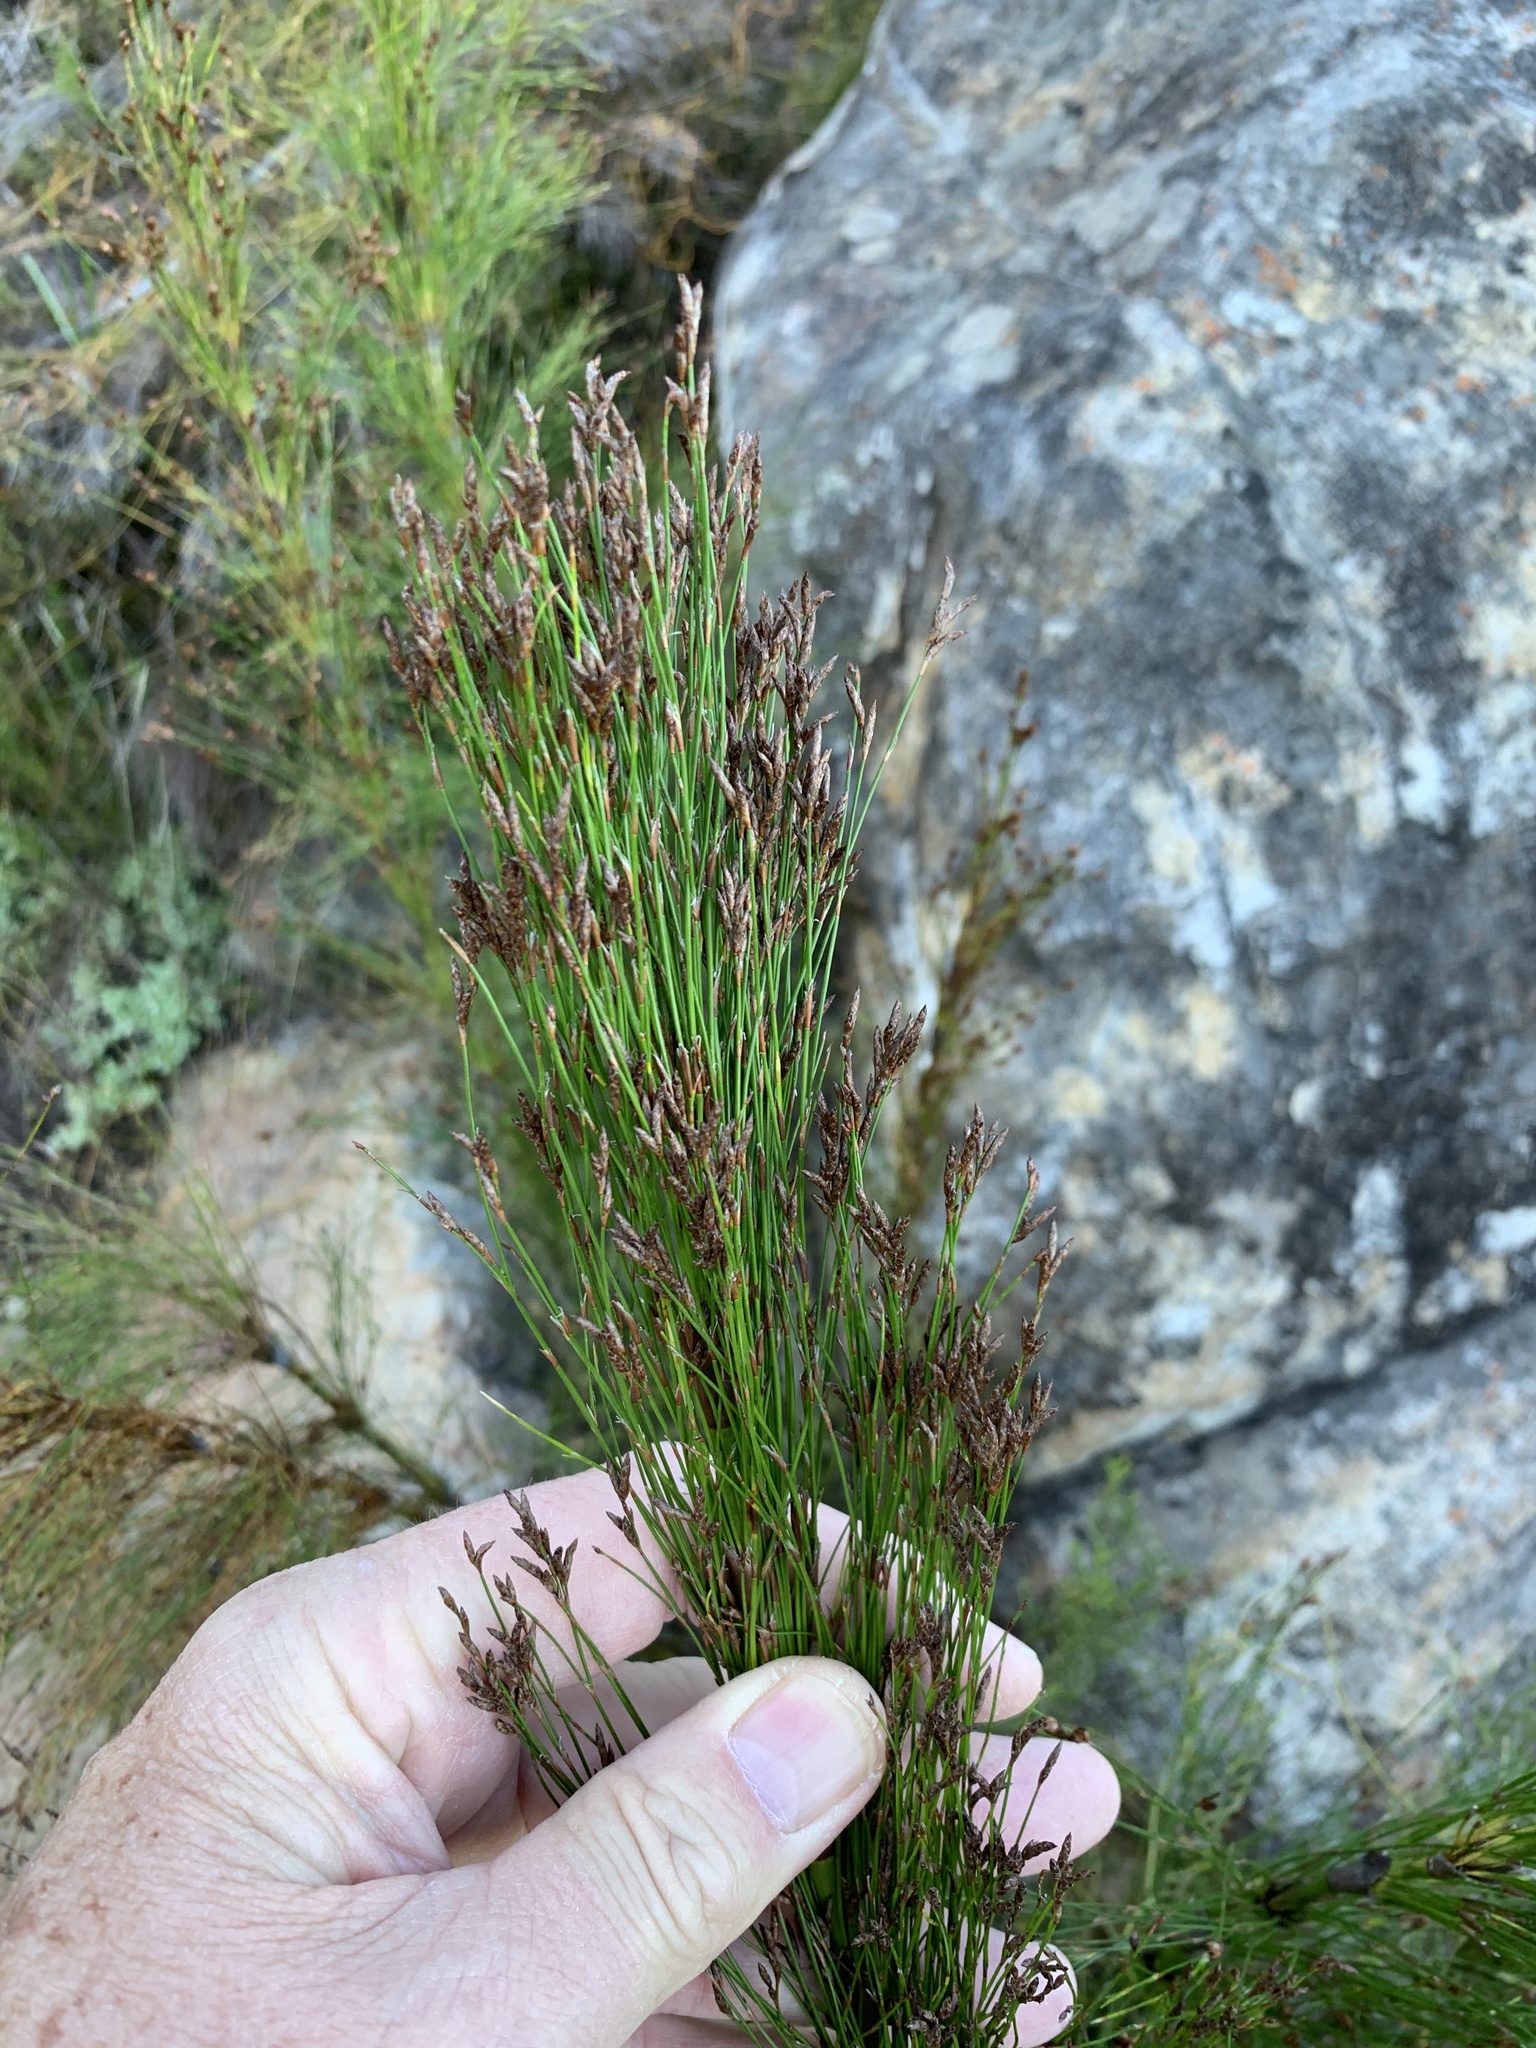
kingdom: Plantae
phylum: Tracheophyta
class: Liliopsida
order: Poales
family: Restionaceae
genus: Restio
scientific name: Restio subverticillatus
